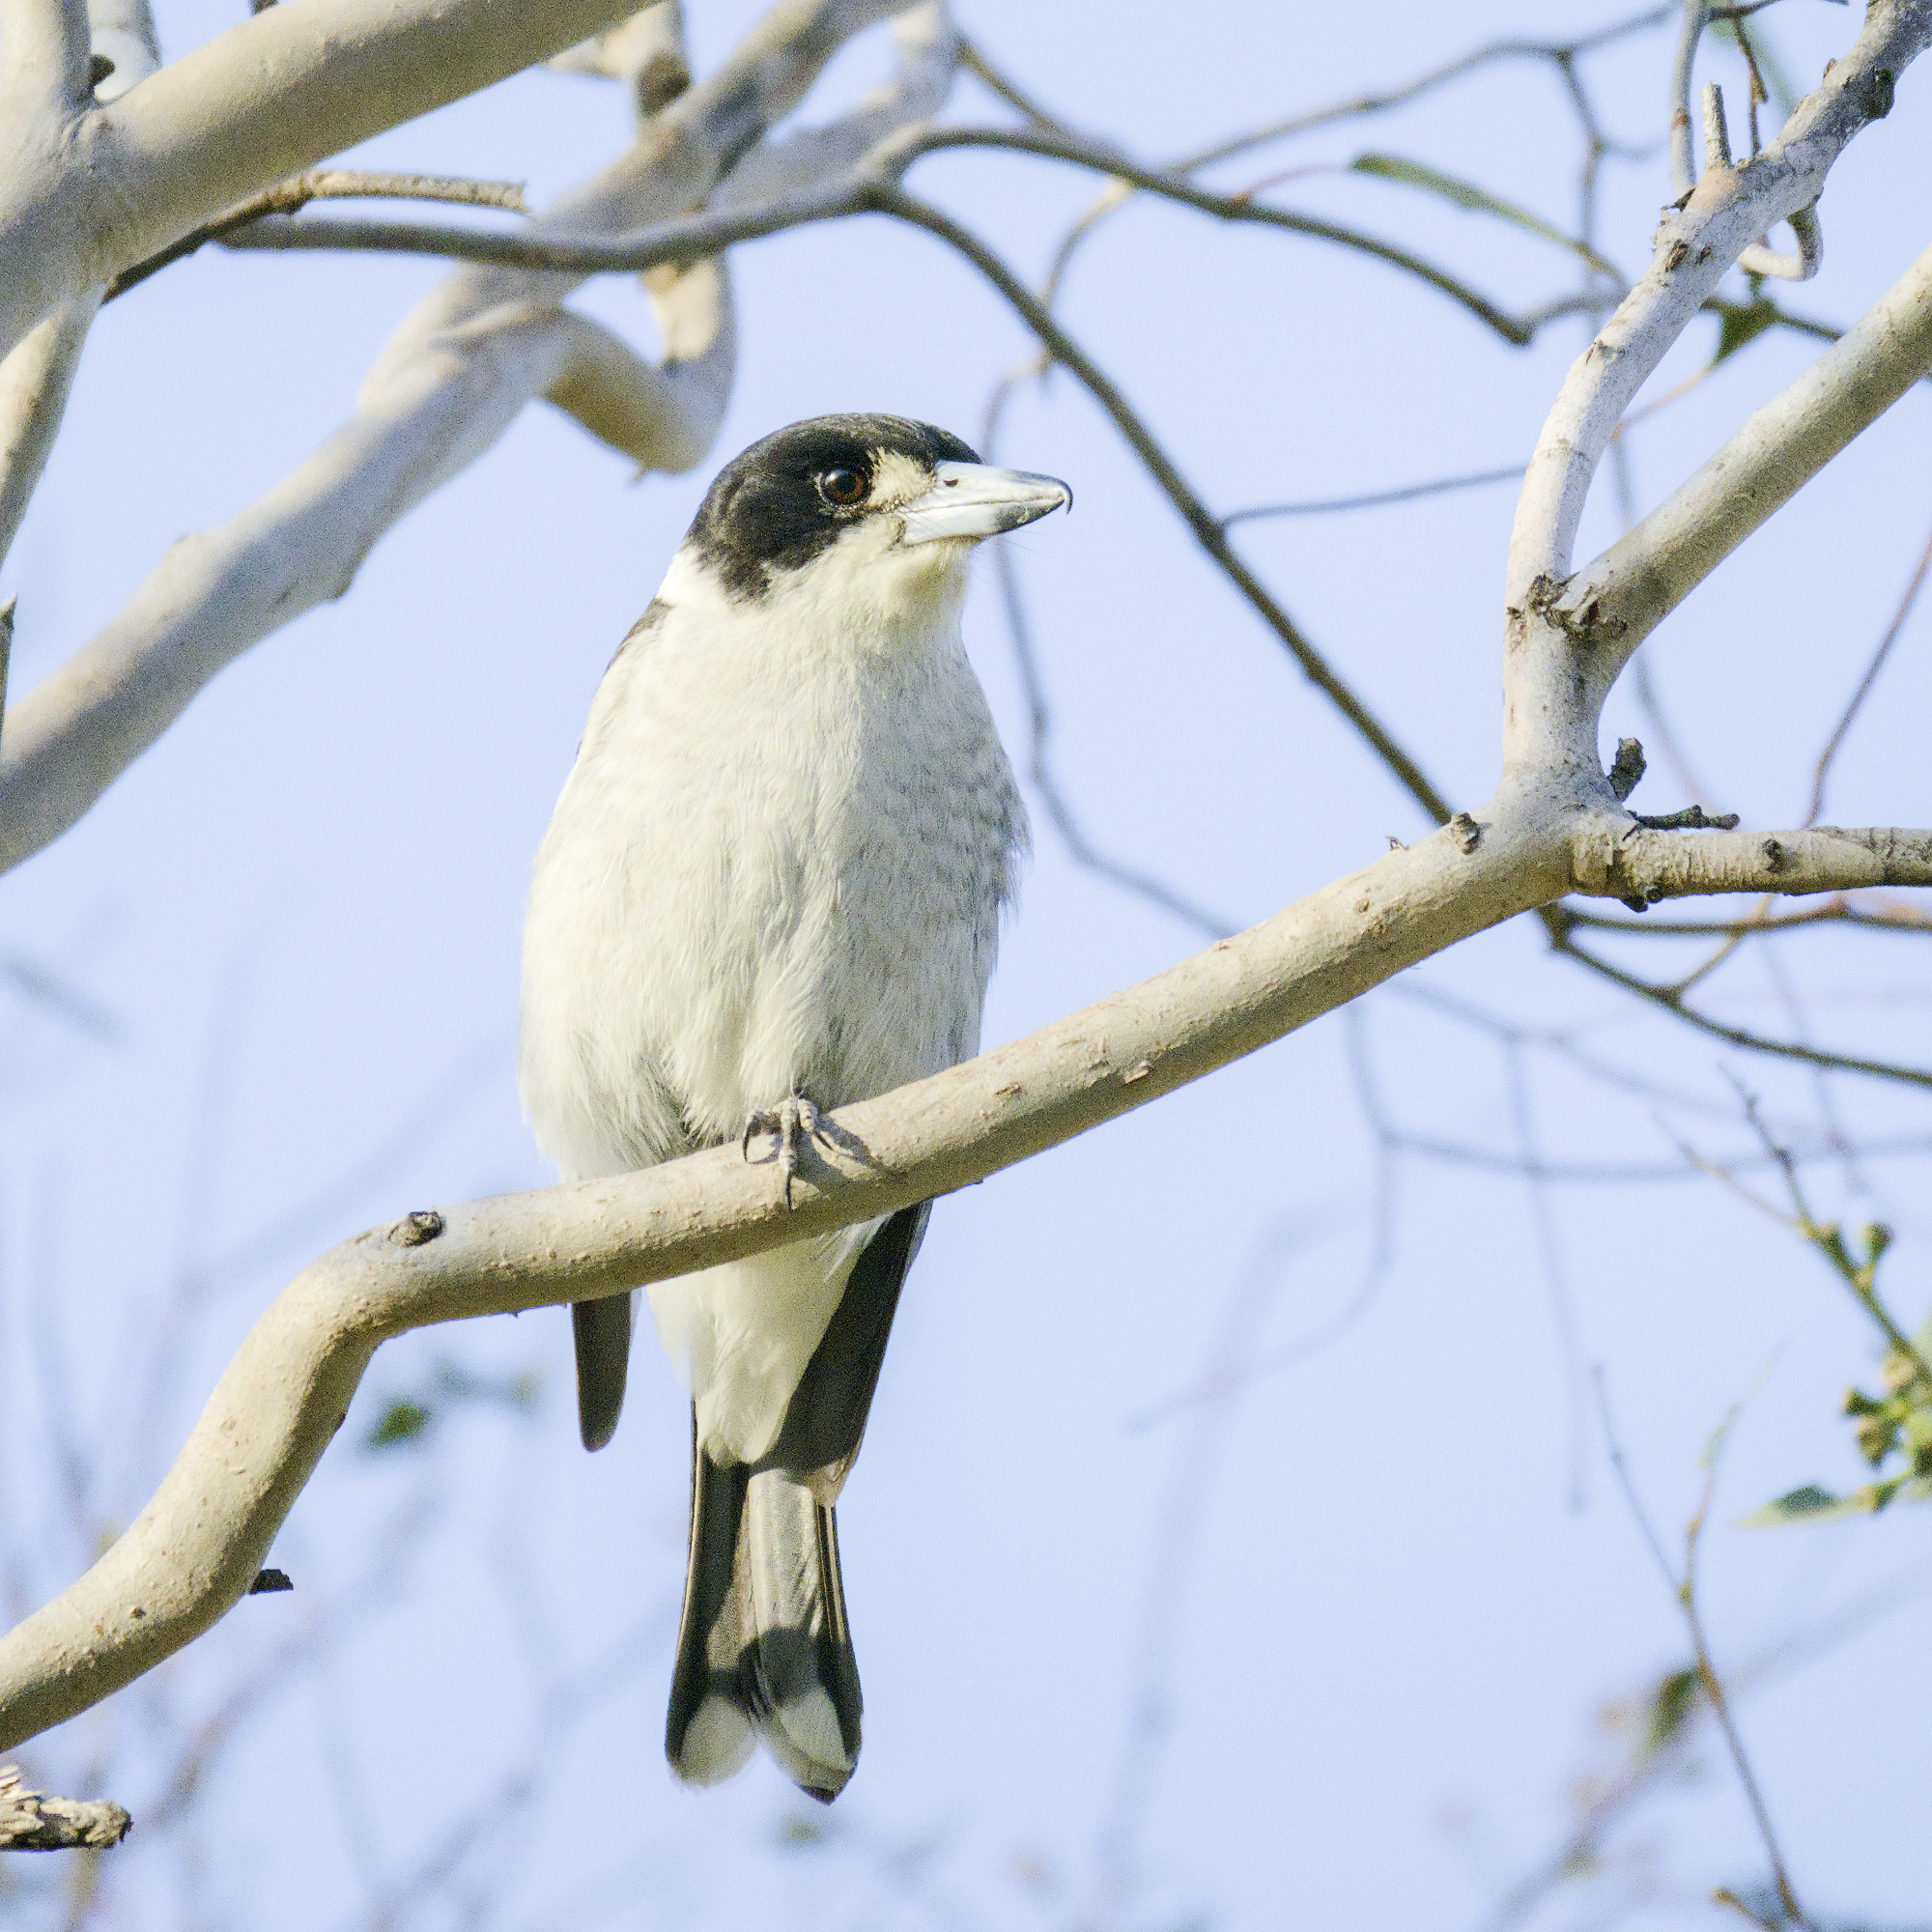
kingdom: Animalia
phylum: Chordata
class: Aves
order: Passeriformes
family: Cracticidae
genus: Cracticus
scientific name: Cracticus torquatus
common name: Grey butcherbird
